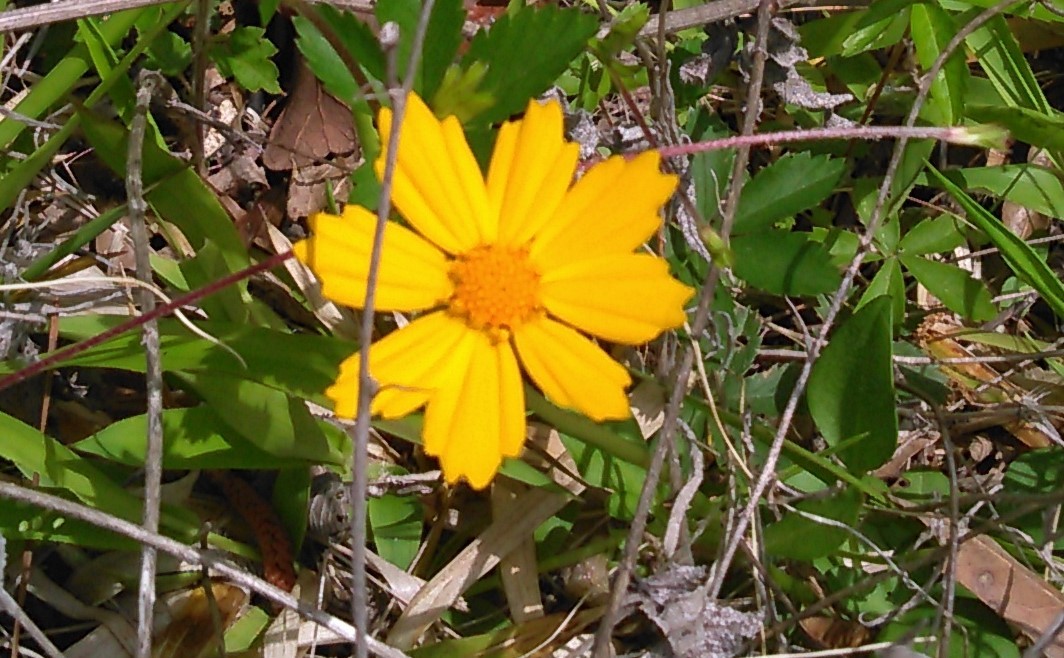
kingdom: Plantae
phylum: Tracheophyta
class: Magnoliopsida
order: Asterales
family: Asteraceae
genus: Coreopsis
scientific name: Coreopsis lanceolata
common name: Garden coreopsis
